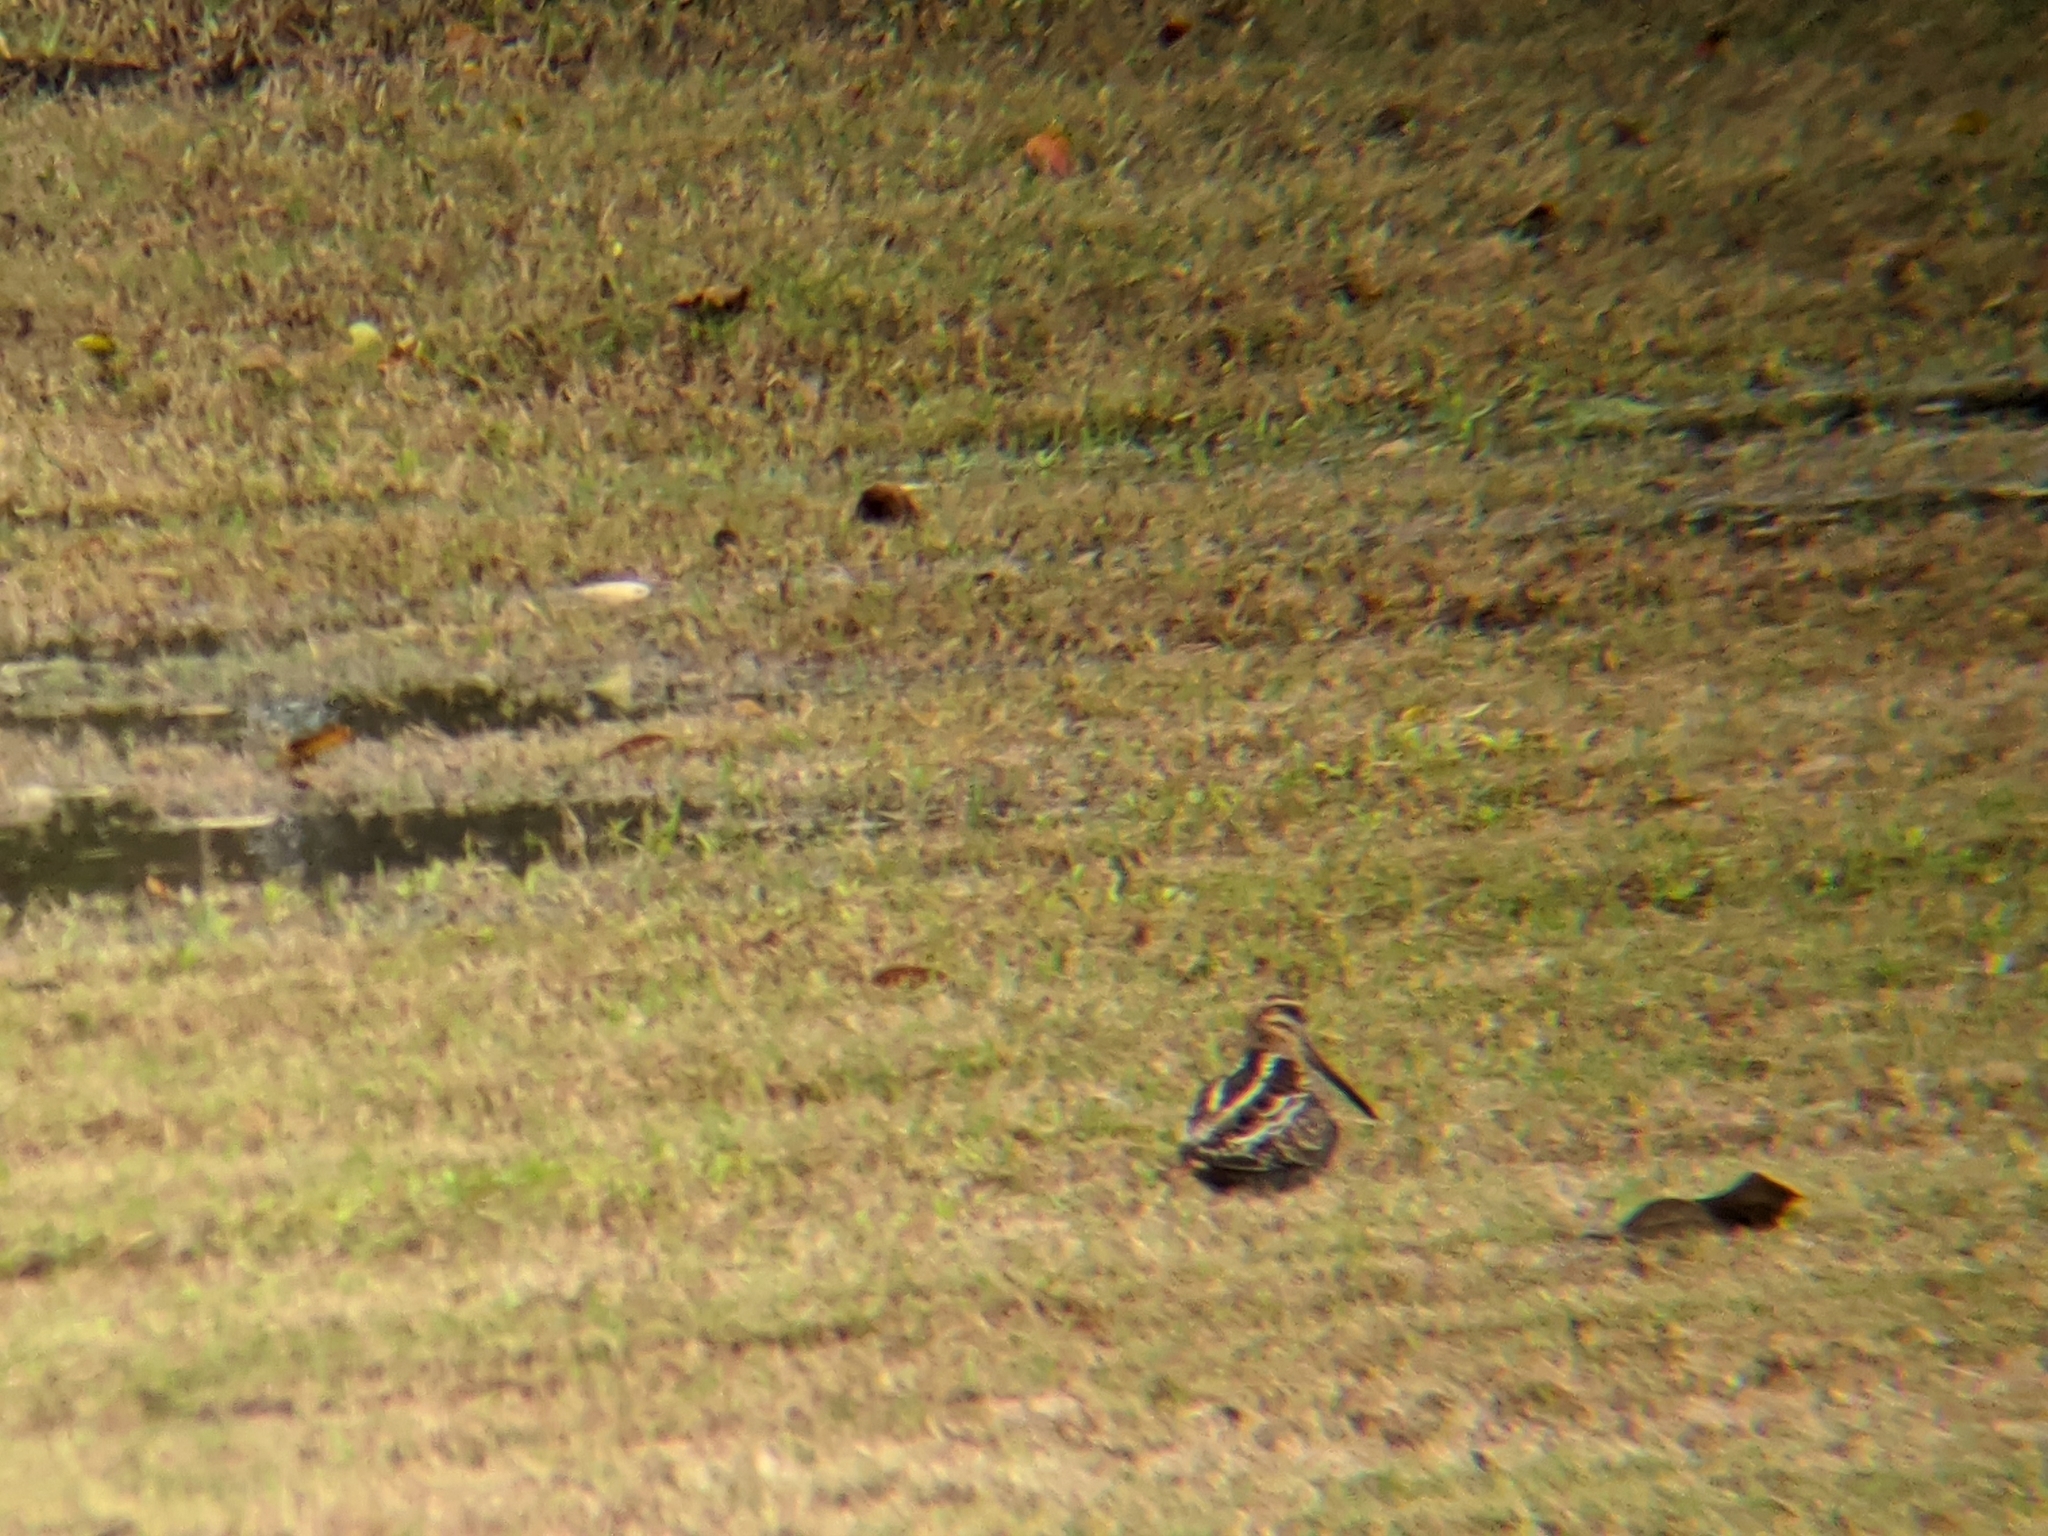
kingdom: Animalia
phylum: Chordata
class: Aves
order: Charadriiformes
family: Scolopacidae
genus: Gallinago
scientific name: Gallinago delicata
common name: Wilson's snipe
